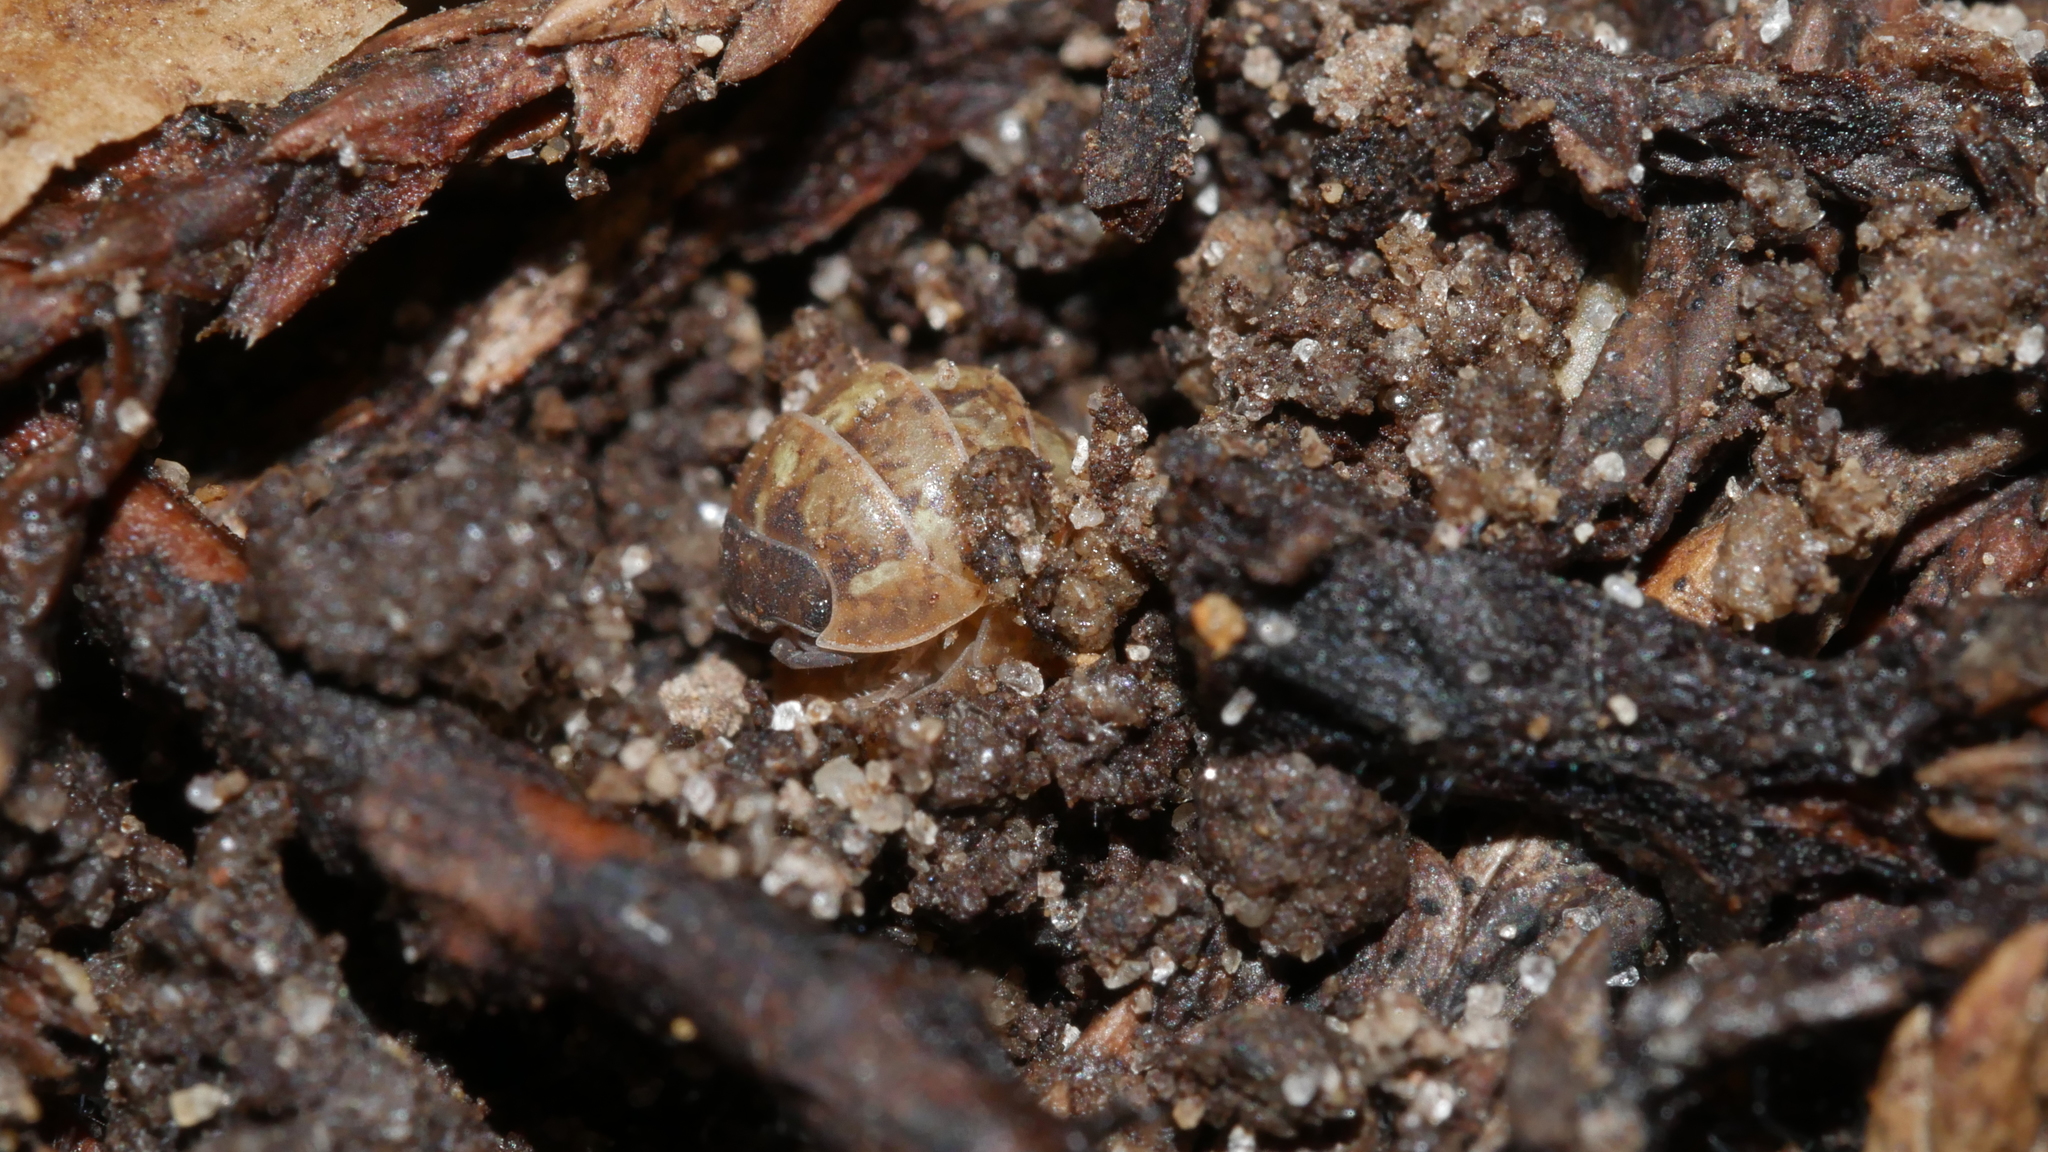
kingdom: Animalia
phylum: Arthropoda
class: Malacostraca
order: Isopoda
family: Armadillidiidae
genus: Armadillidium
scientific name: Armadillidium vulgare
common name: Common pill woodlouse
